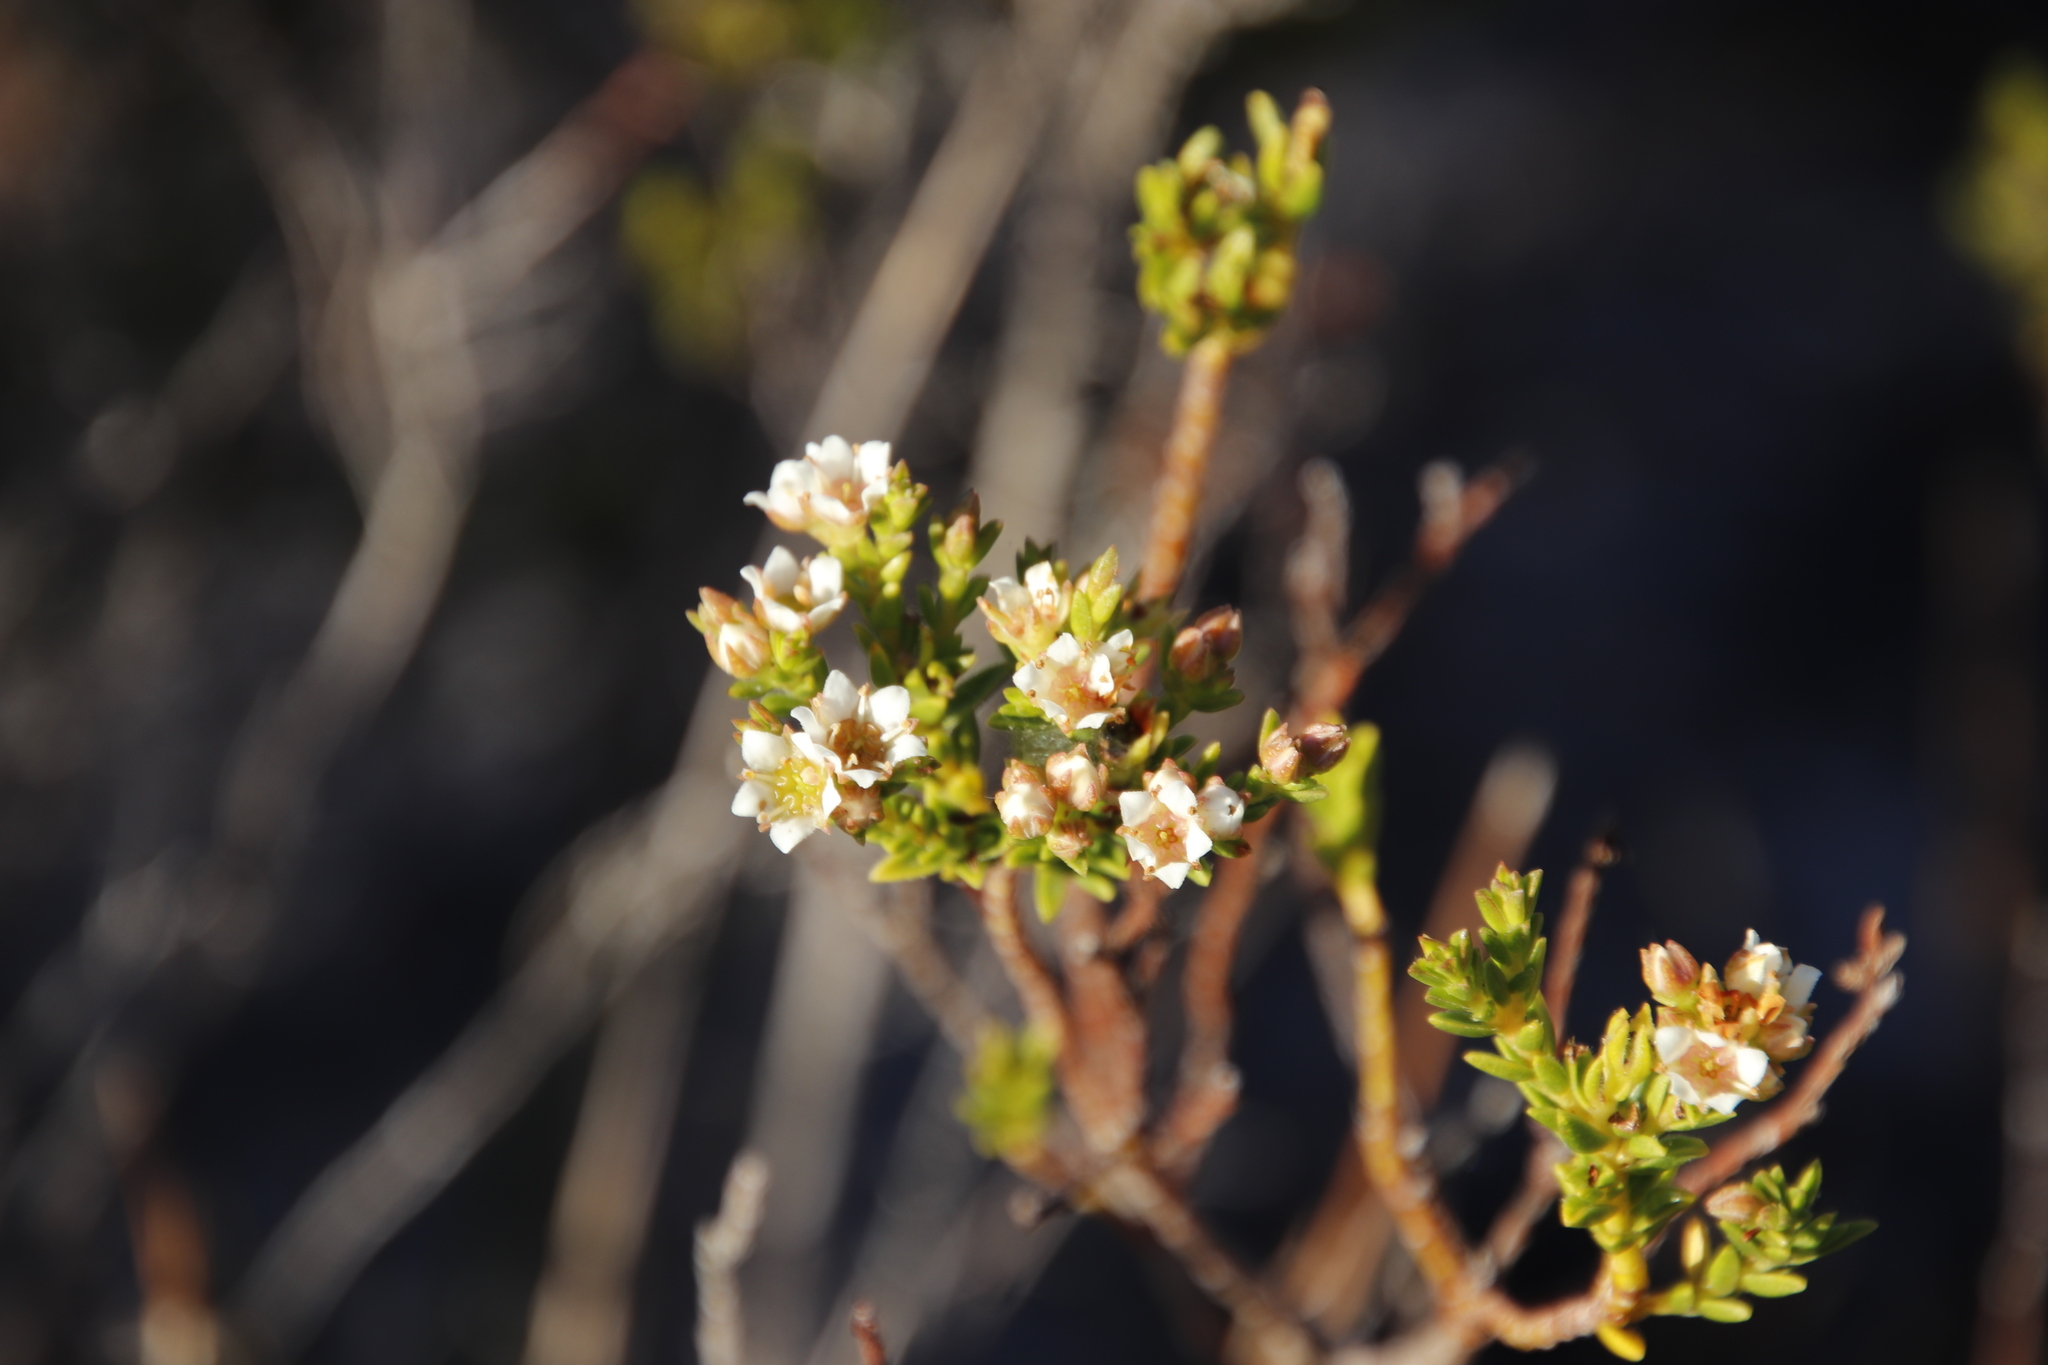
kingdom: Plantae
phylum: Tracheophyta
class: Magnoliopsida
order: Sapindales
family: Rutaceae
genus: Diosma
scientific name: Diosma oppositifolia
